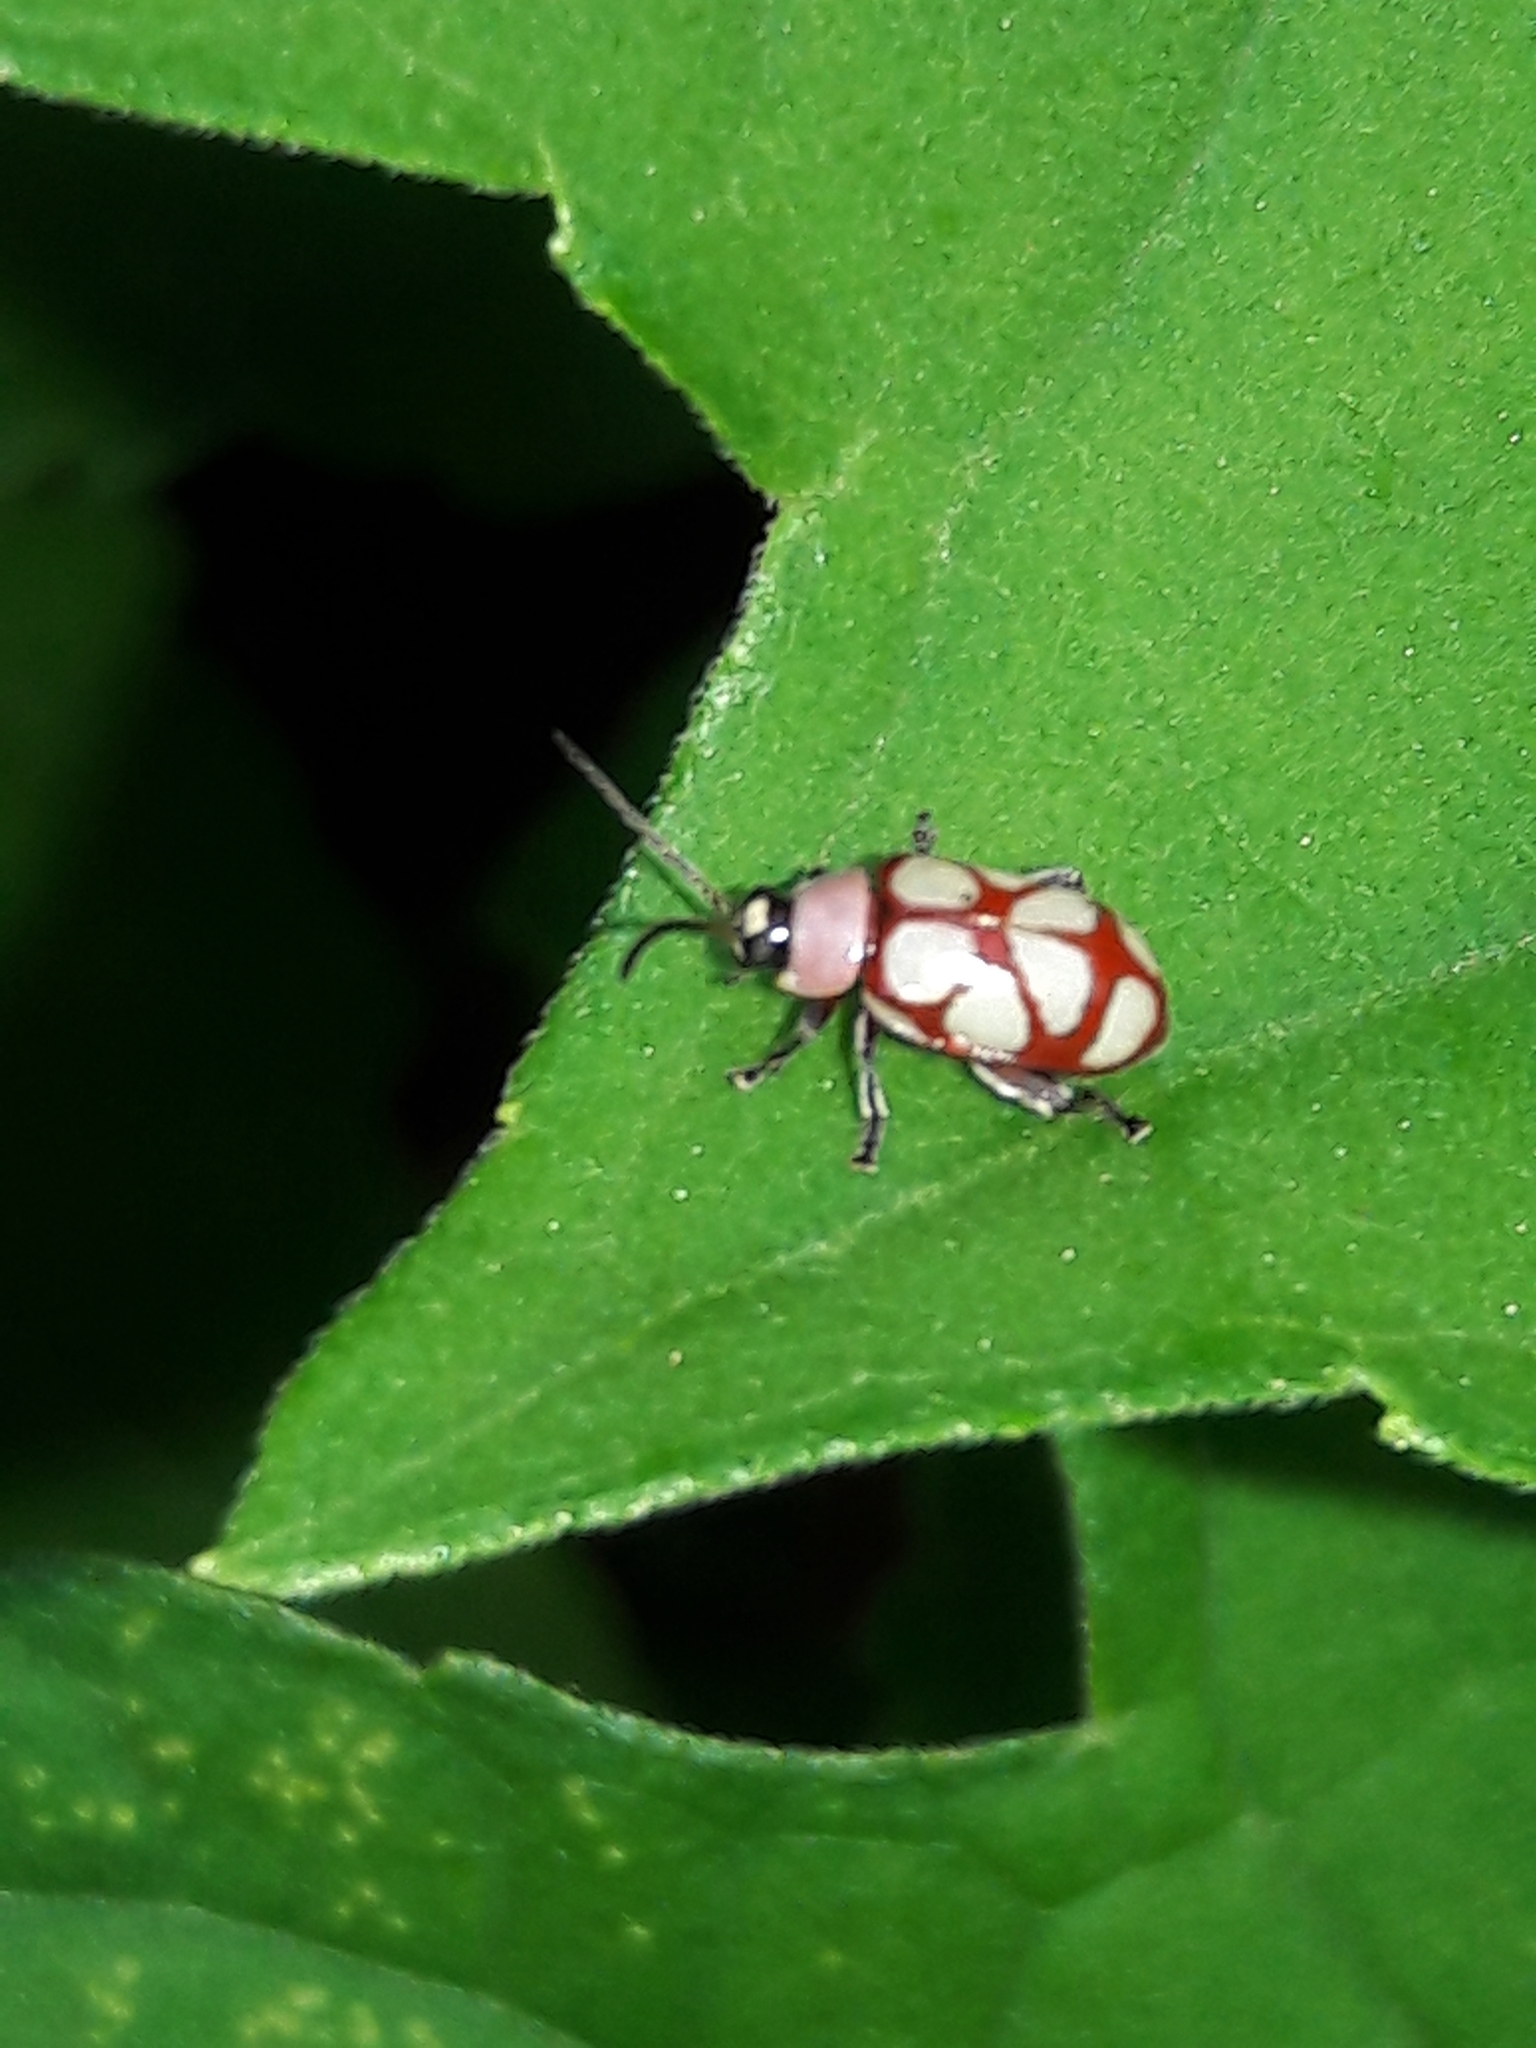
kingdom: Animalia
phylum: Arthropoda
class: Insecta
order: Coleoptera
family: Chrysomelidae
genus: Omophoita
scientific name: Omophoita
